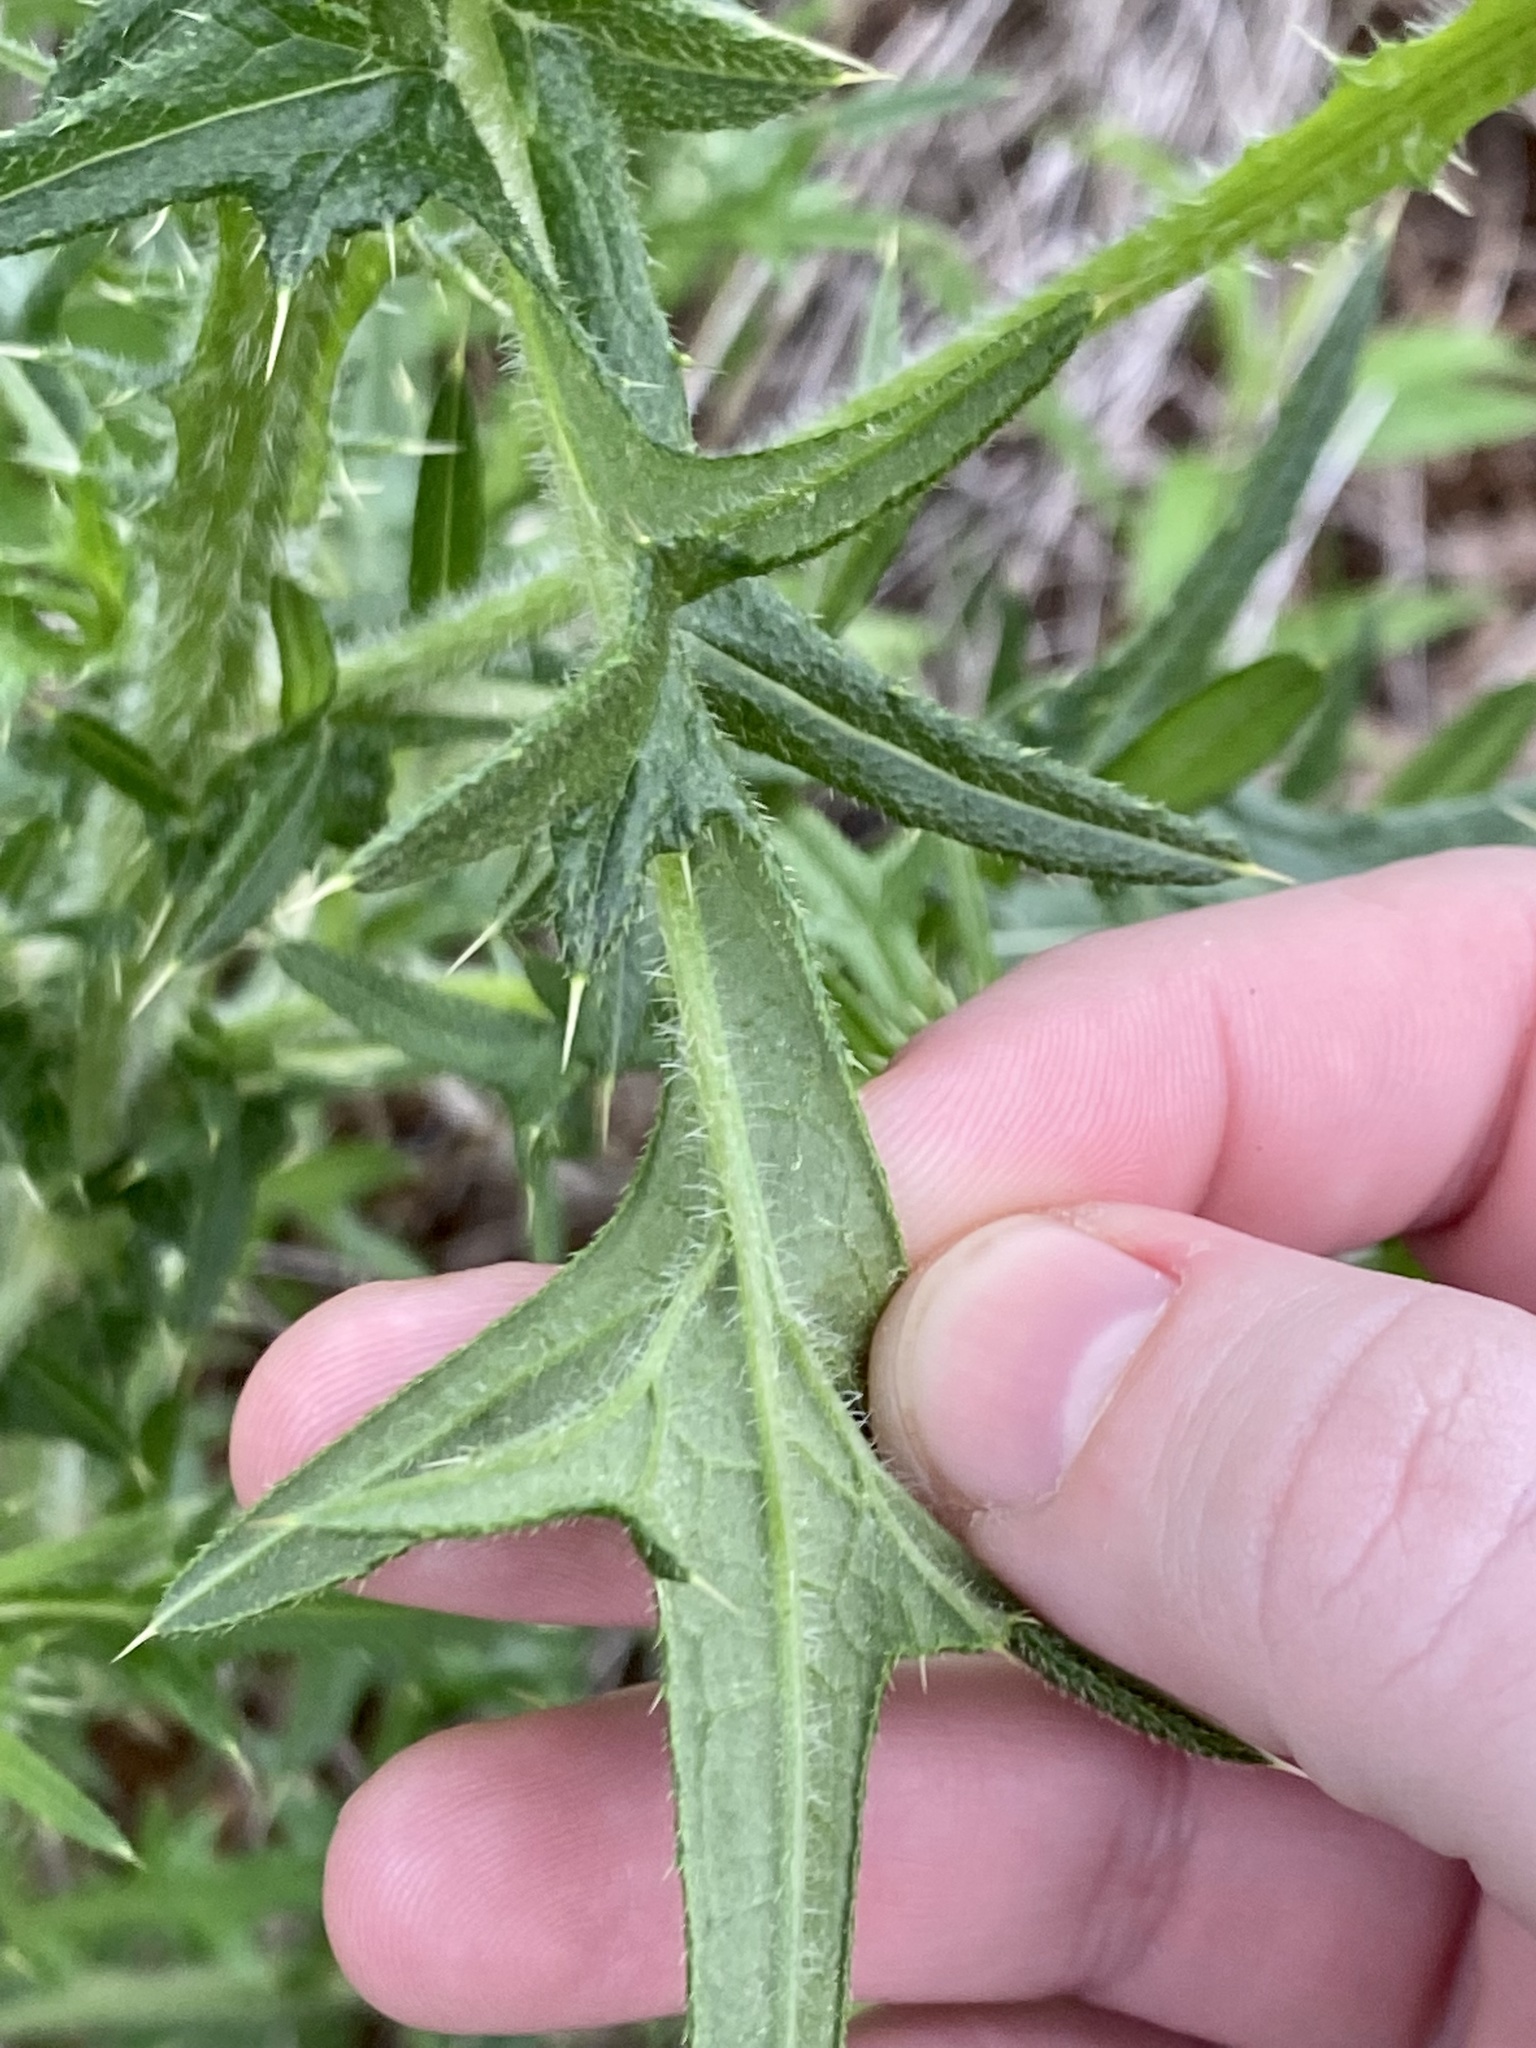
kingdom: Plantae
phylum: Tracheophyta
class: Magnoliopsida
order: Asterales
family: Asteraceae
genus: Cirsium
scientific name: Cirsium vulgare
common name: Bull thistle
